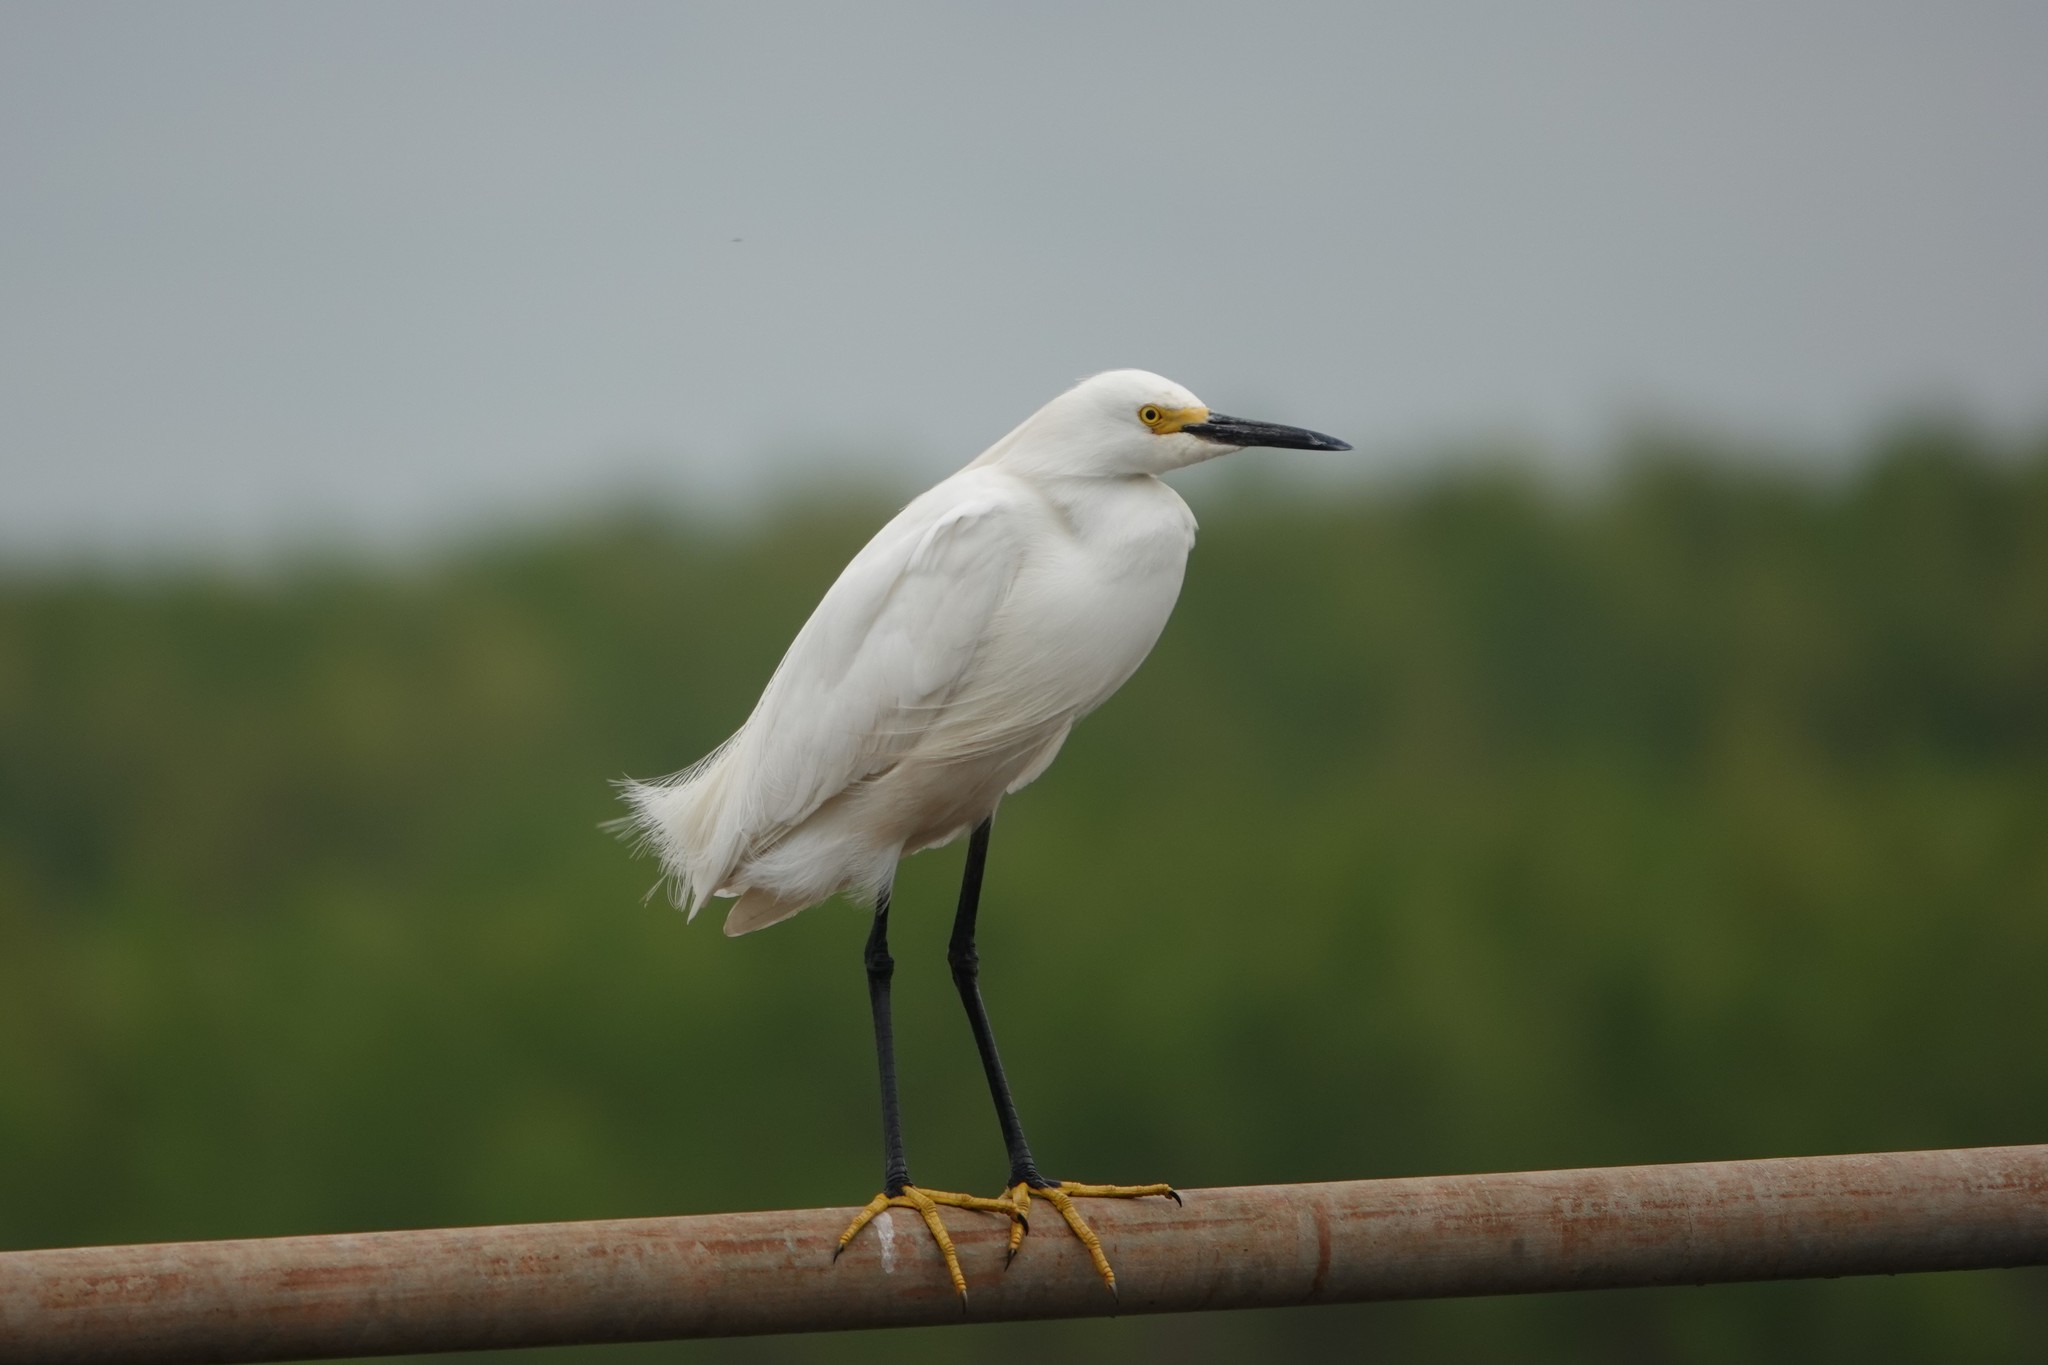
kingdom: Animalia
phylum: Chordata
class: Aves
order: Pelecaniformes
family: Ardeidae
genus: Egretta
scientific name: Egretta thula
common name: Snowy egret
